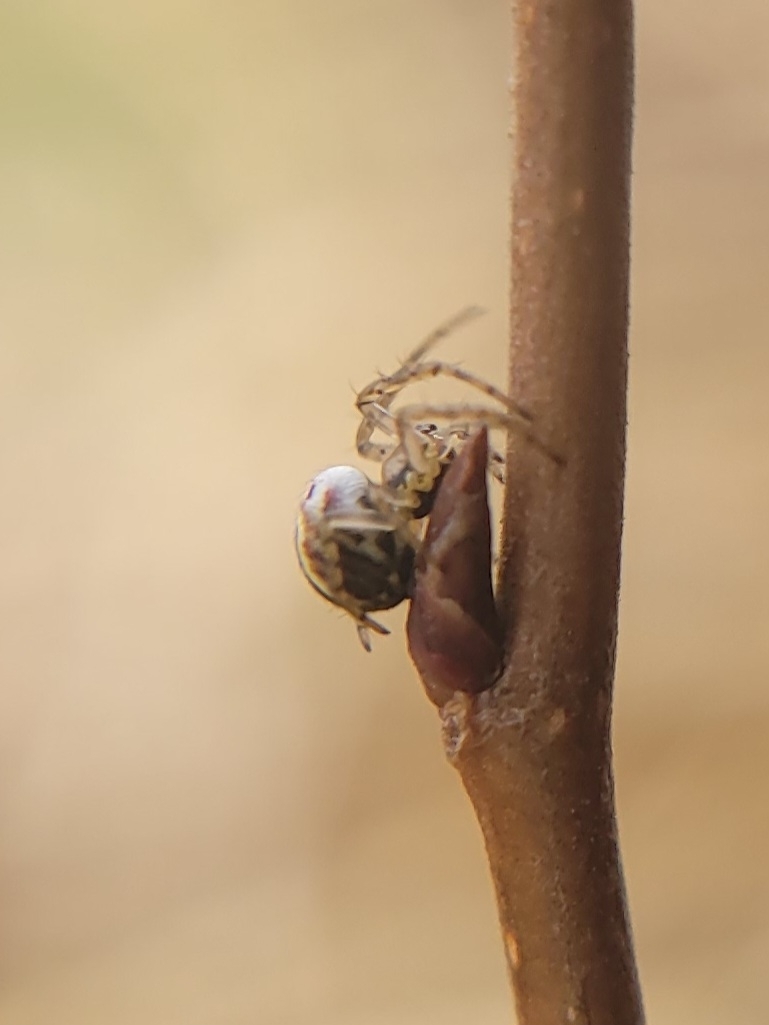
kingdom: Animalia
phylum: Arthropoda
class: Arachnida
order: Araneae
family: Araneidae
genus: Mangora
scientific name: Mangora acalypha
